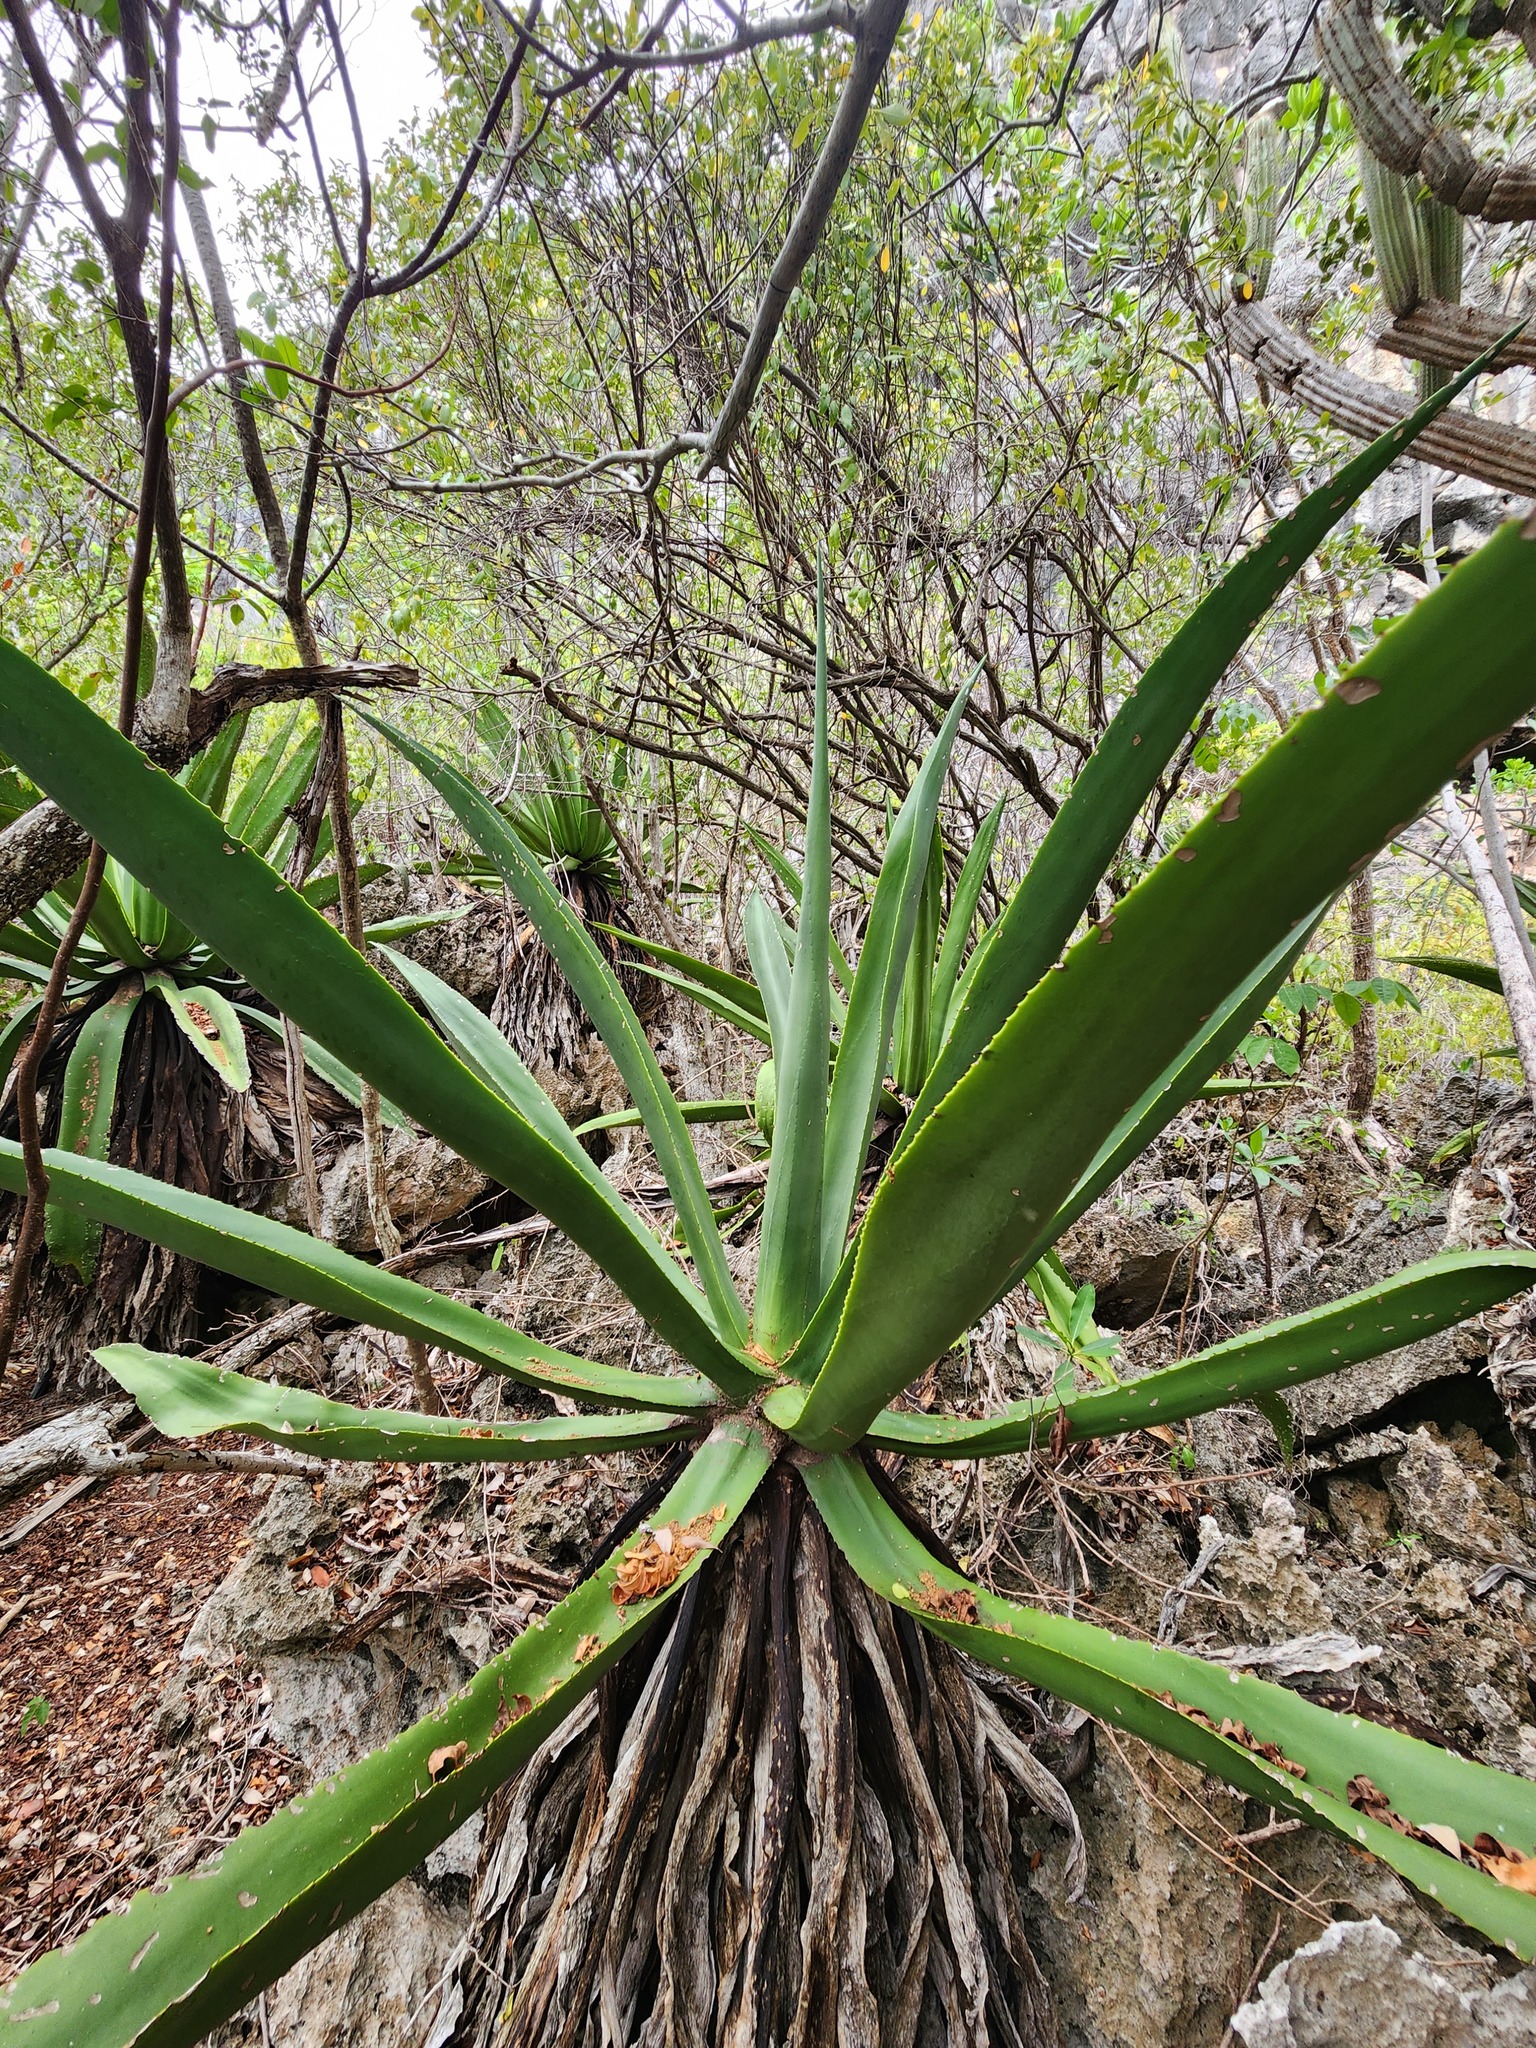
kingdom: Plantae
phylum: Tracheophyta
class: Liliopsida
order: Asparagales
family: Asparagaceae
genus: Agave
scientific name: Agave caymanensis
